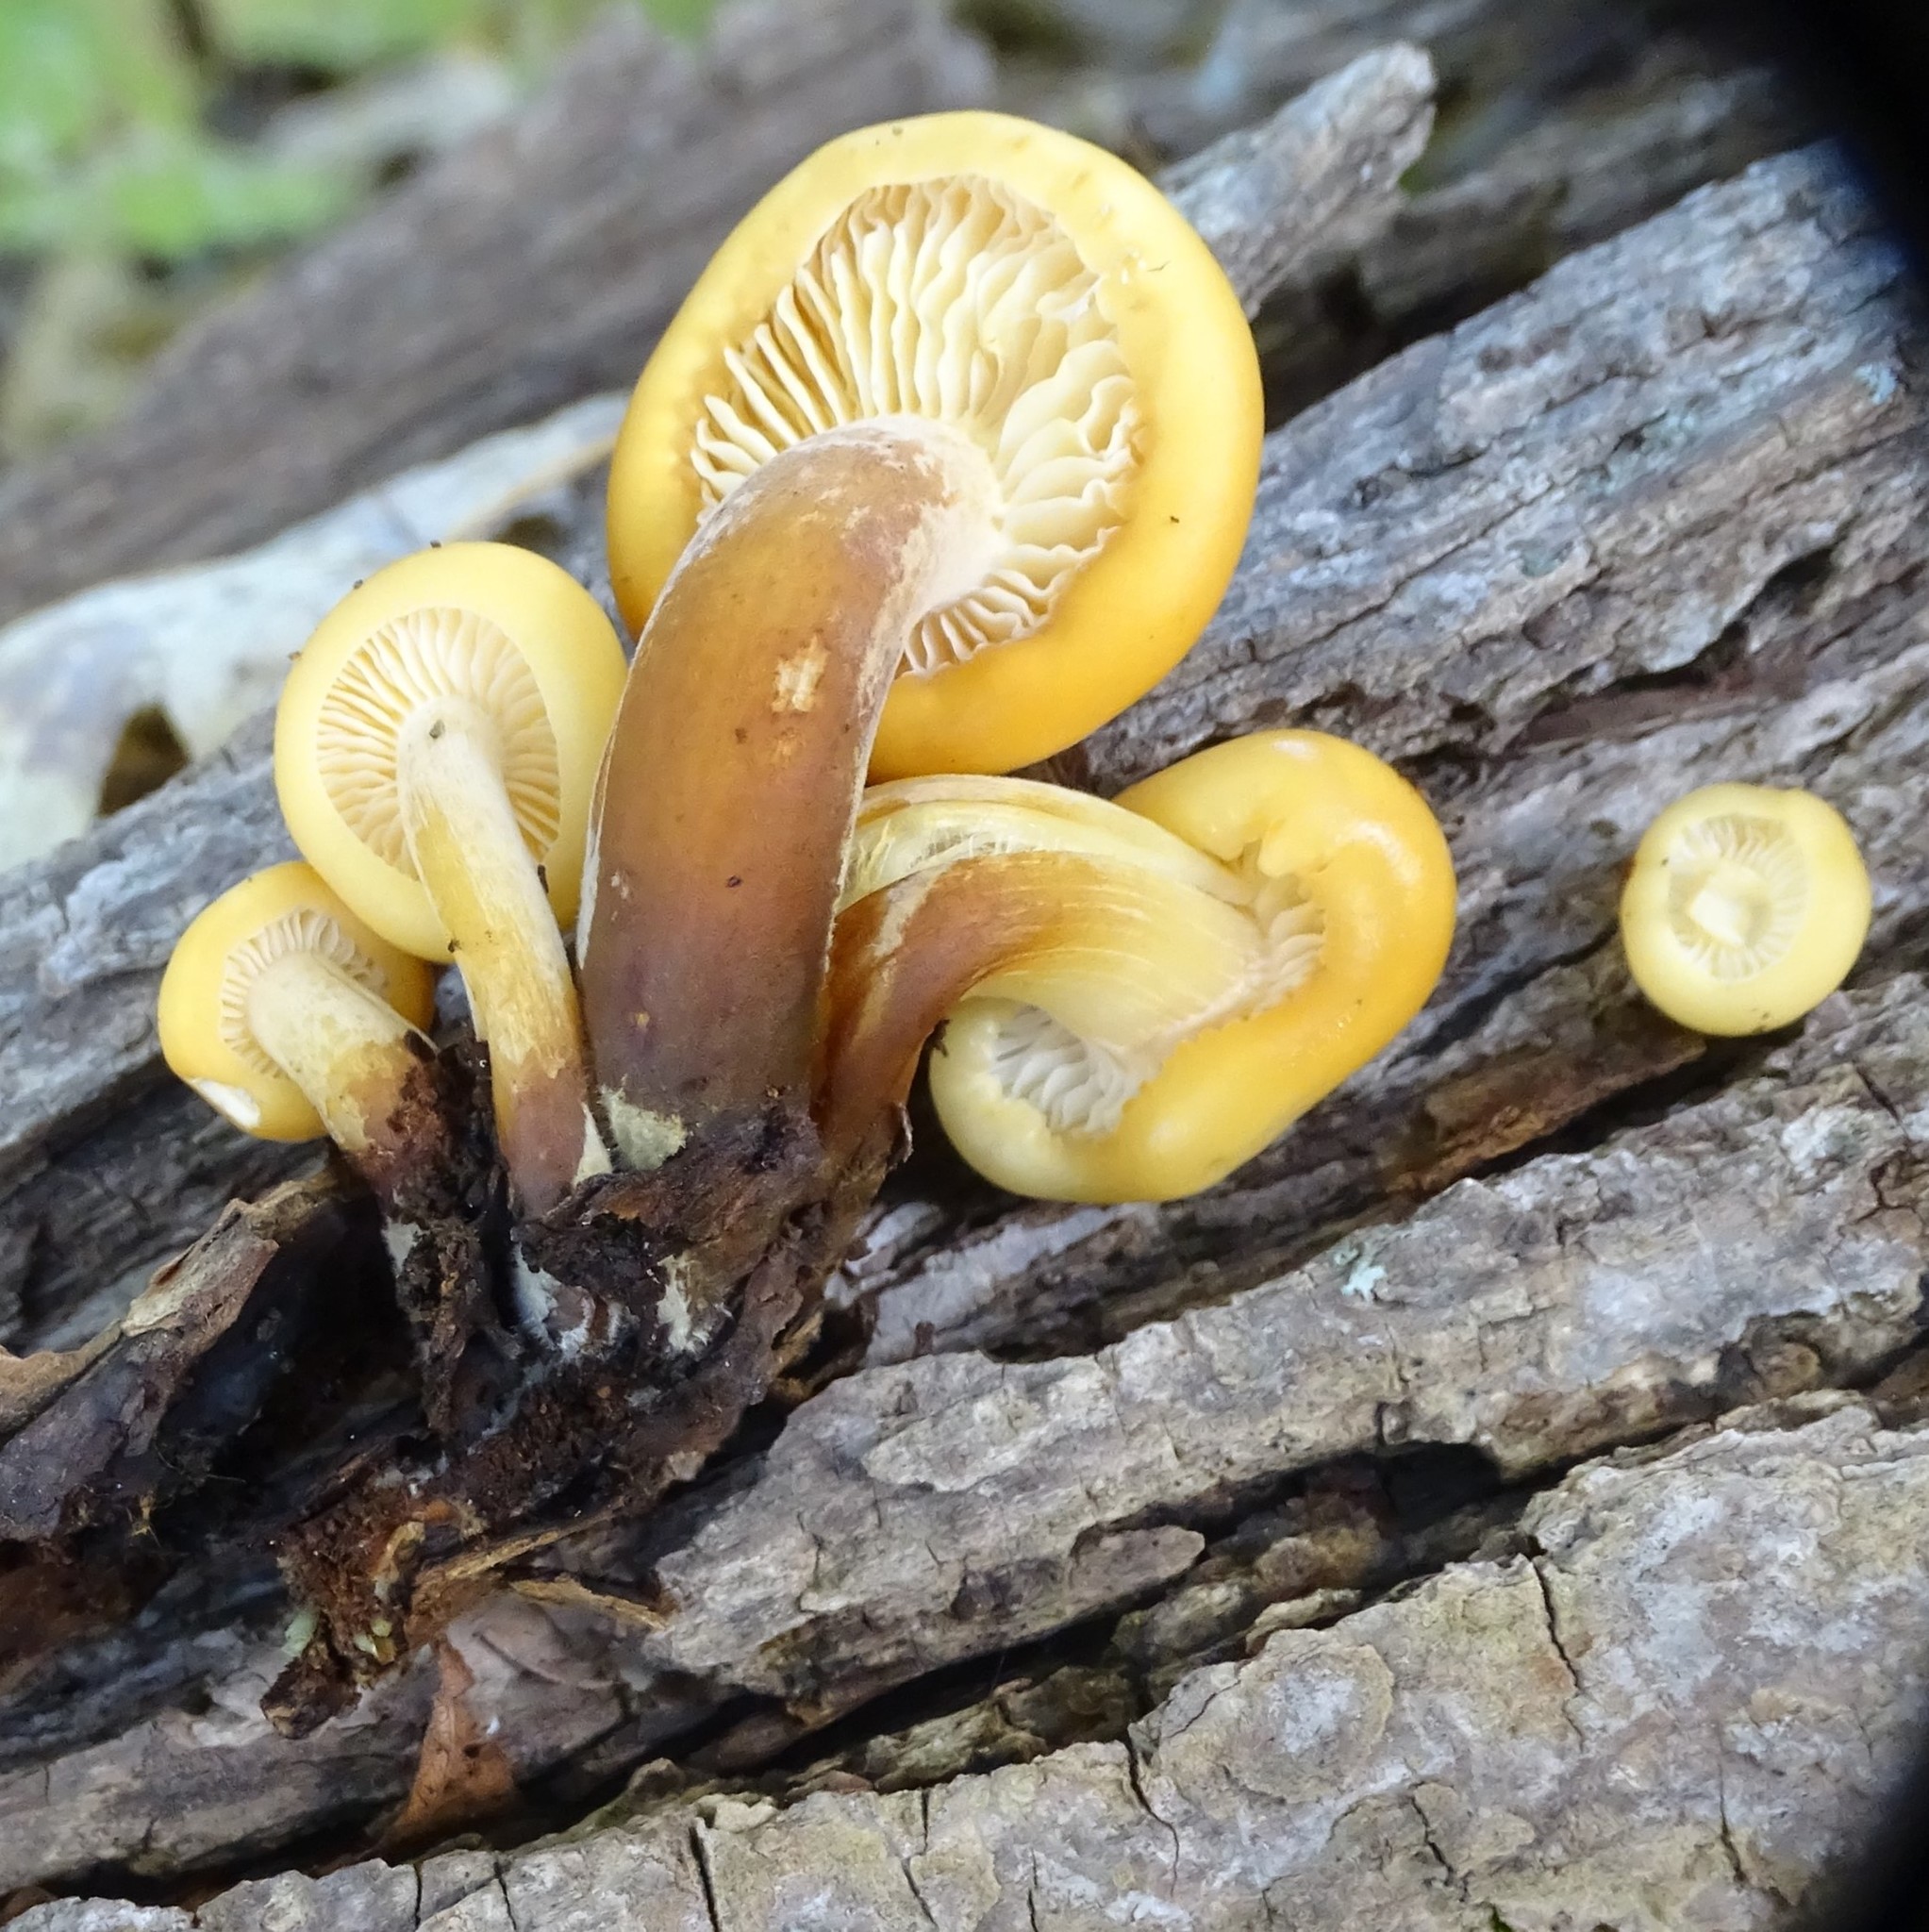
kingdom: Fungi
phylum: Basidiomycota
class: Agaricomycetes
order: Agaricales
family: Physalacriaceae
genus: Flammulina
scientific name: Flammulina velutipes
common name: Velvet shank
